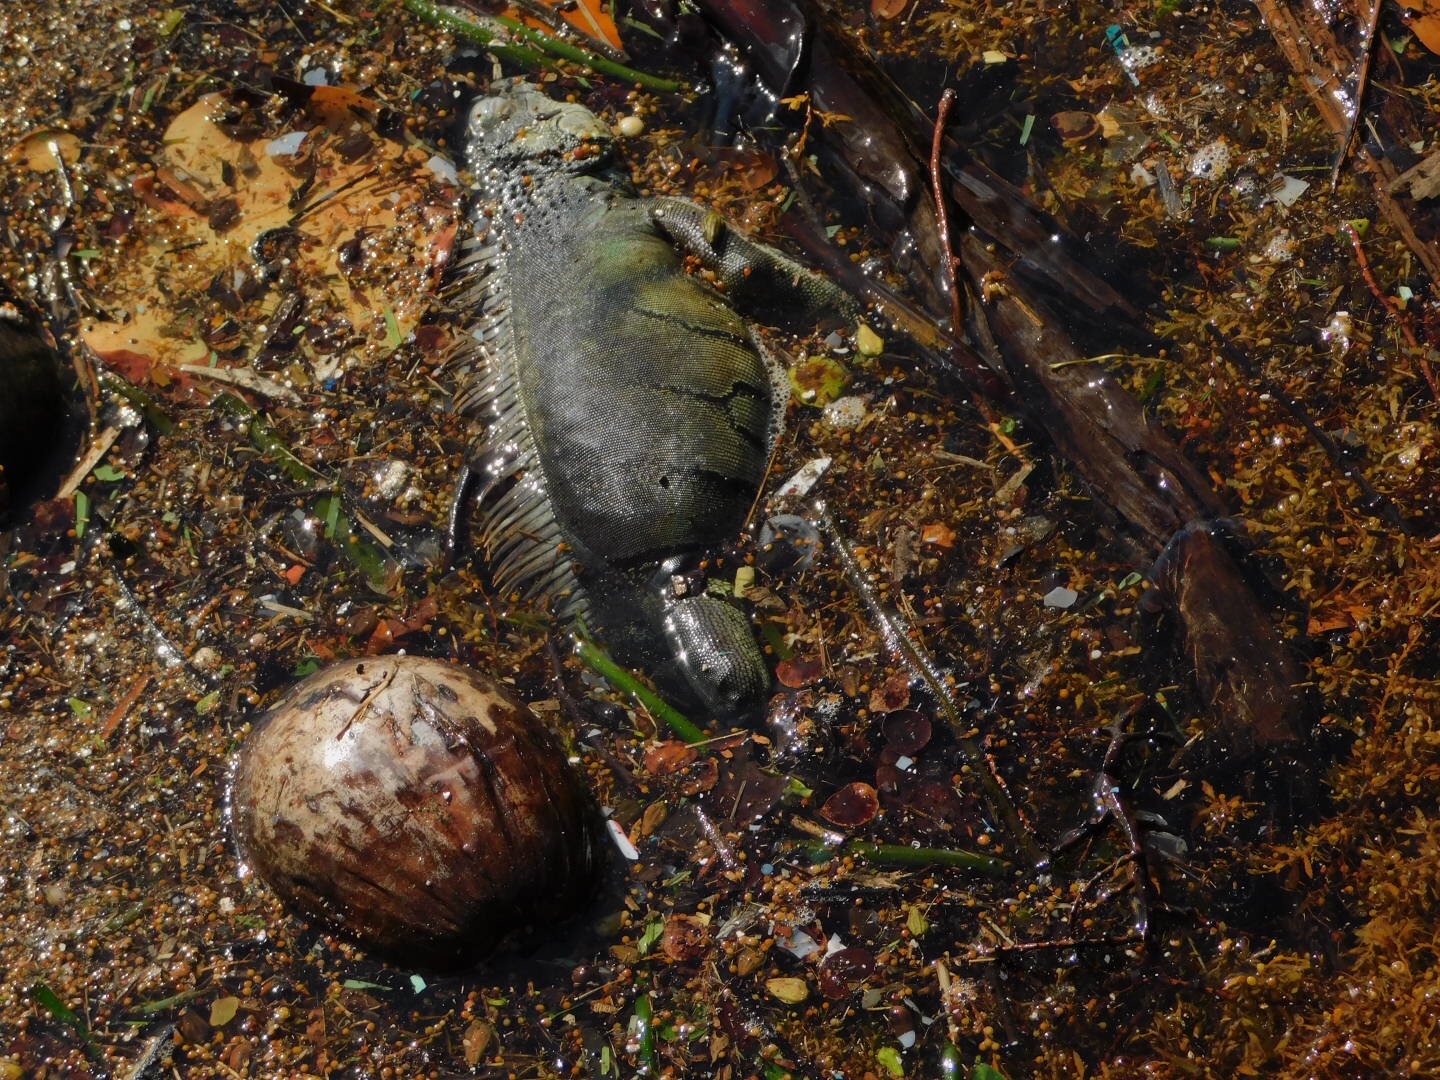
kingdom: Animalia
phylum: Chordata
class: Squamata
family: Iguanidae
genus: Iguana
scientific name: Iguana iguana
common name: Green iguana
